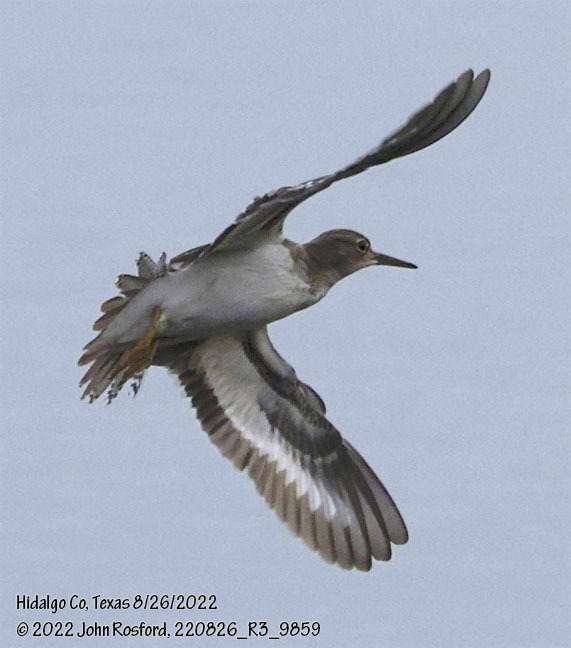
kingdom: Animalia
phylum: Chordata
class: Aves
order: Charadriiformes
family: Scolopacidae
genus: Actitis
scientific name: Actitis macularius
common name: Spotted sandpiper
